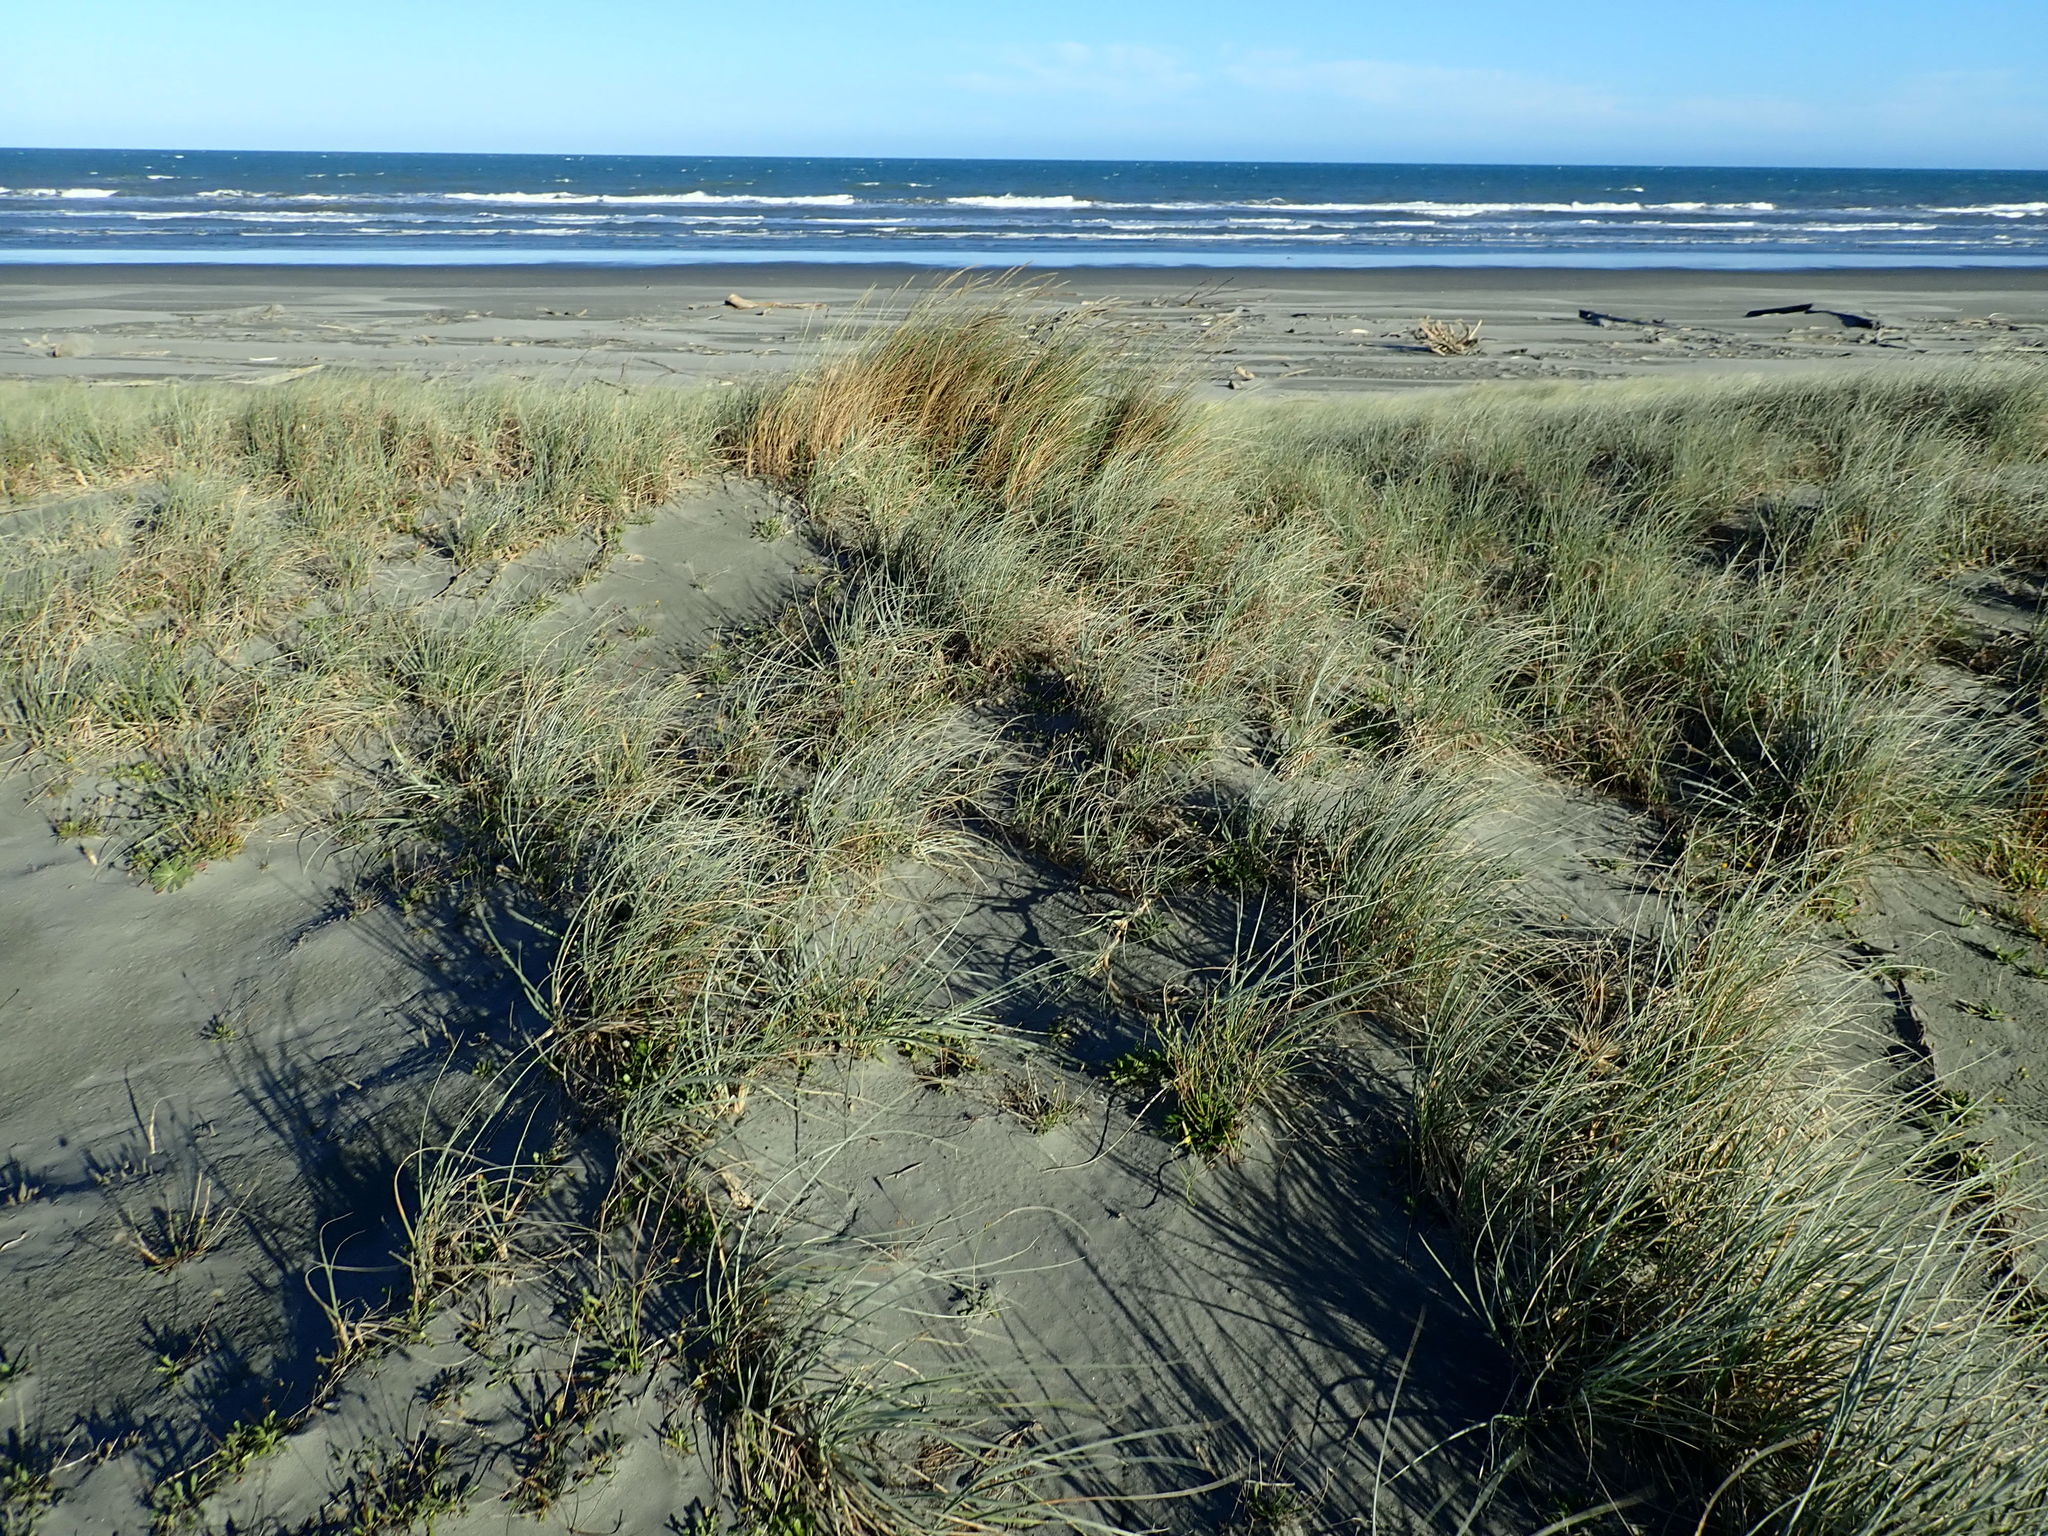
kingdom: Plantae
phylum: Tracheophyta
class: Liliopsida
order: Poales
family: Poaceae
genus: Calamagrostis
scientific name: Calamagrostis arenaria
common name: European beachgrass
